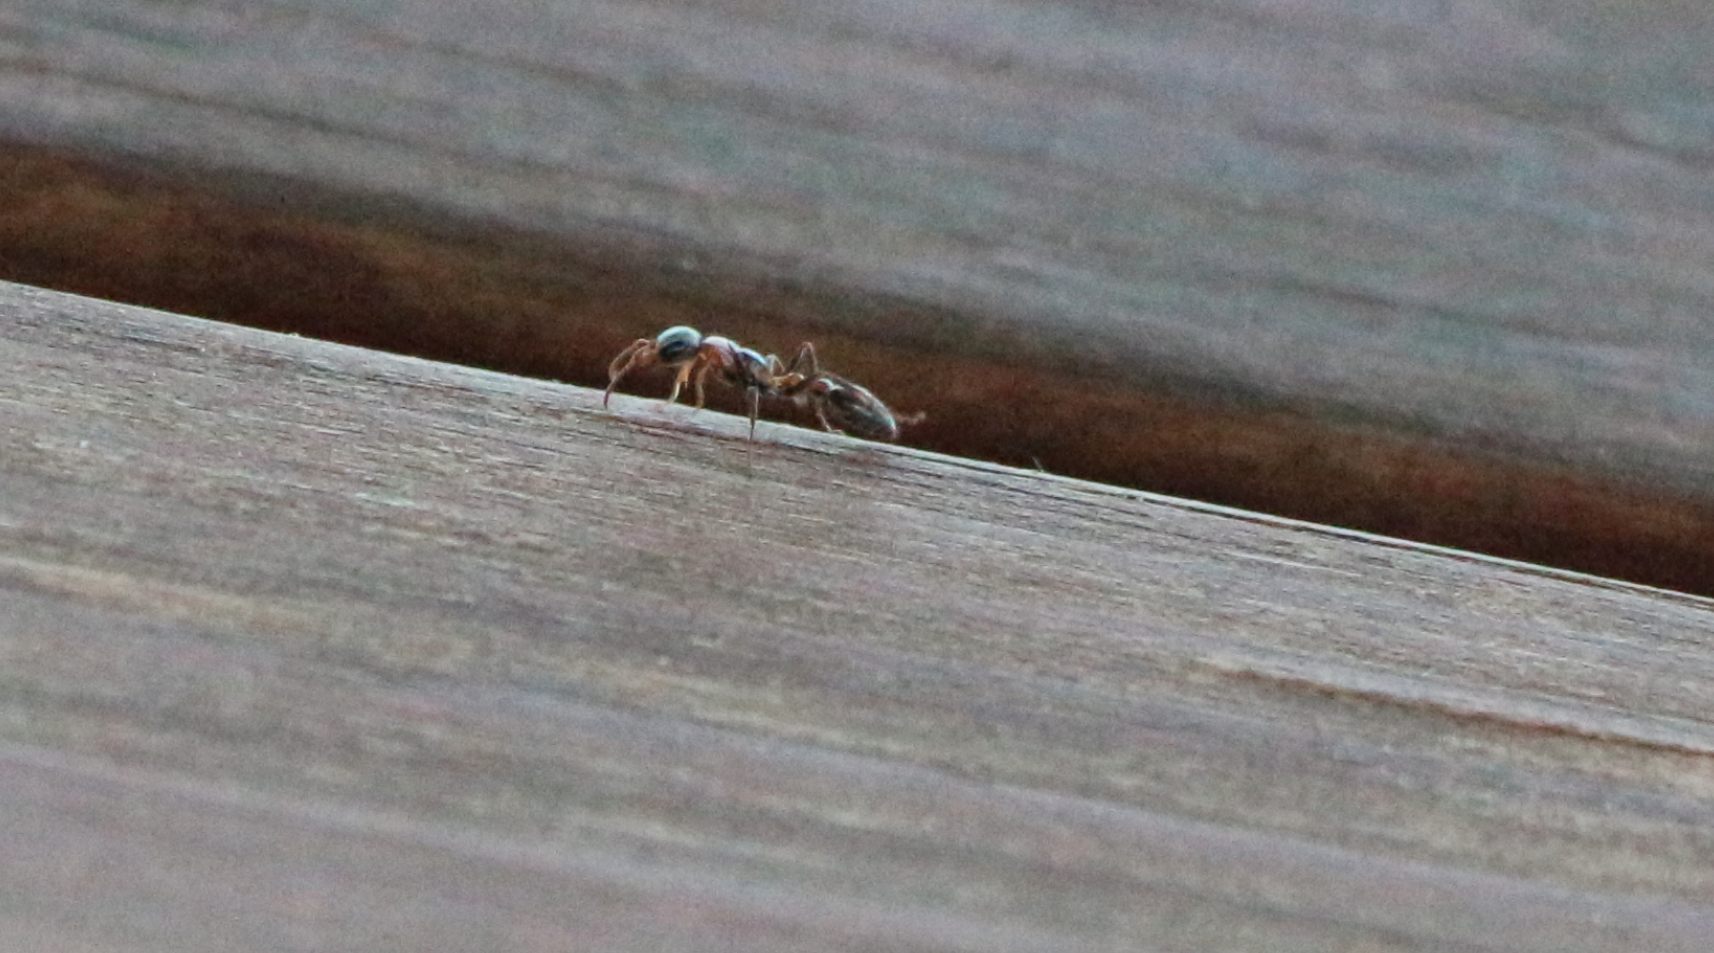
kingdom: Animalia
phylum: Arthropoda
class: Insecta
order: Hymenoptera
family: Formicidae
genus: Pseudomyrmex
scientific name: Pseudomyrmex gracilis
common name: Graceful twig ant
